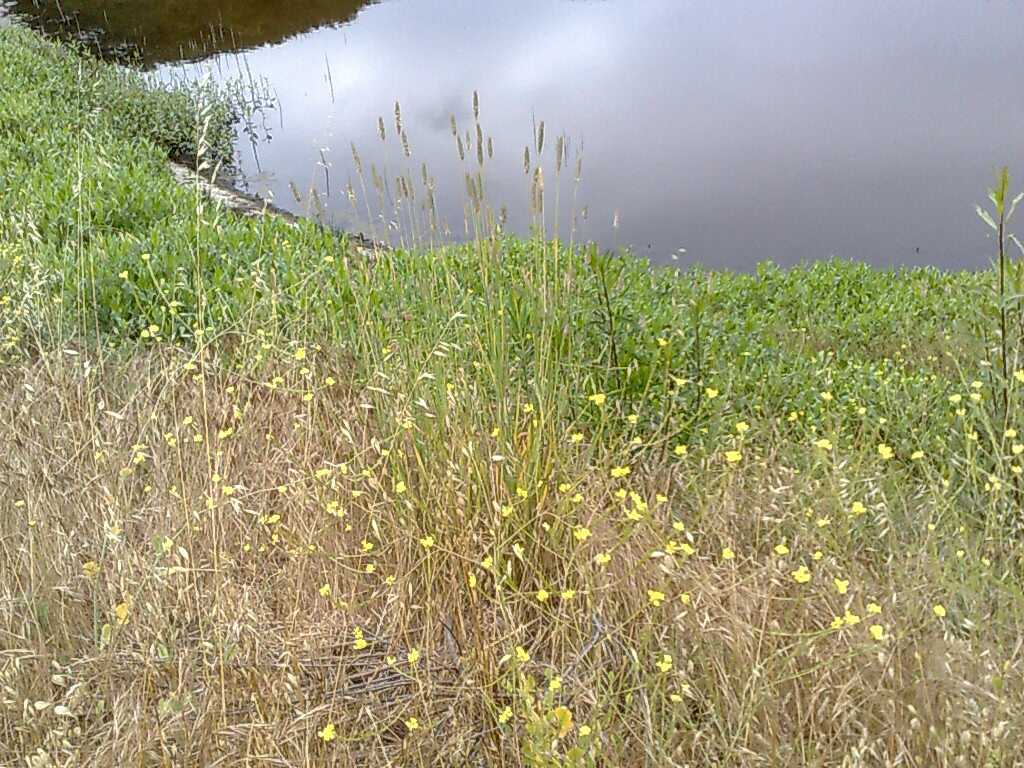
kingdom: Plantae
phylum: Tracheophyta
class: Magnoliopsida
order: Brassicales
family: Brassicaceae
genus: Hirschfeldia
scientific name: Hirschfeldia incana
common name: Hoary mustard
